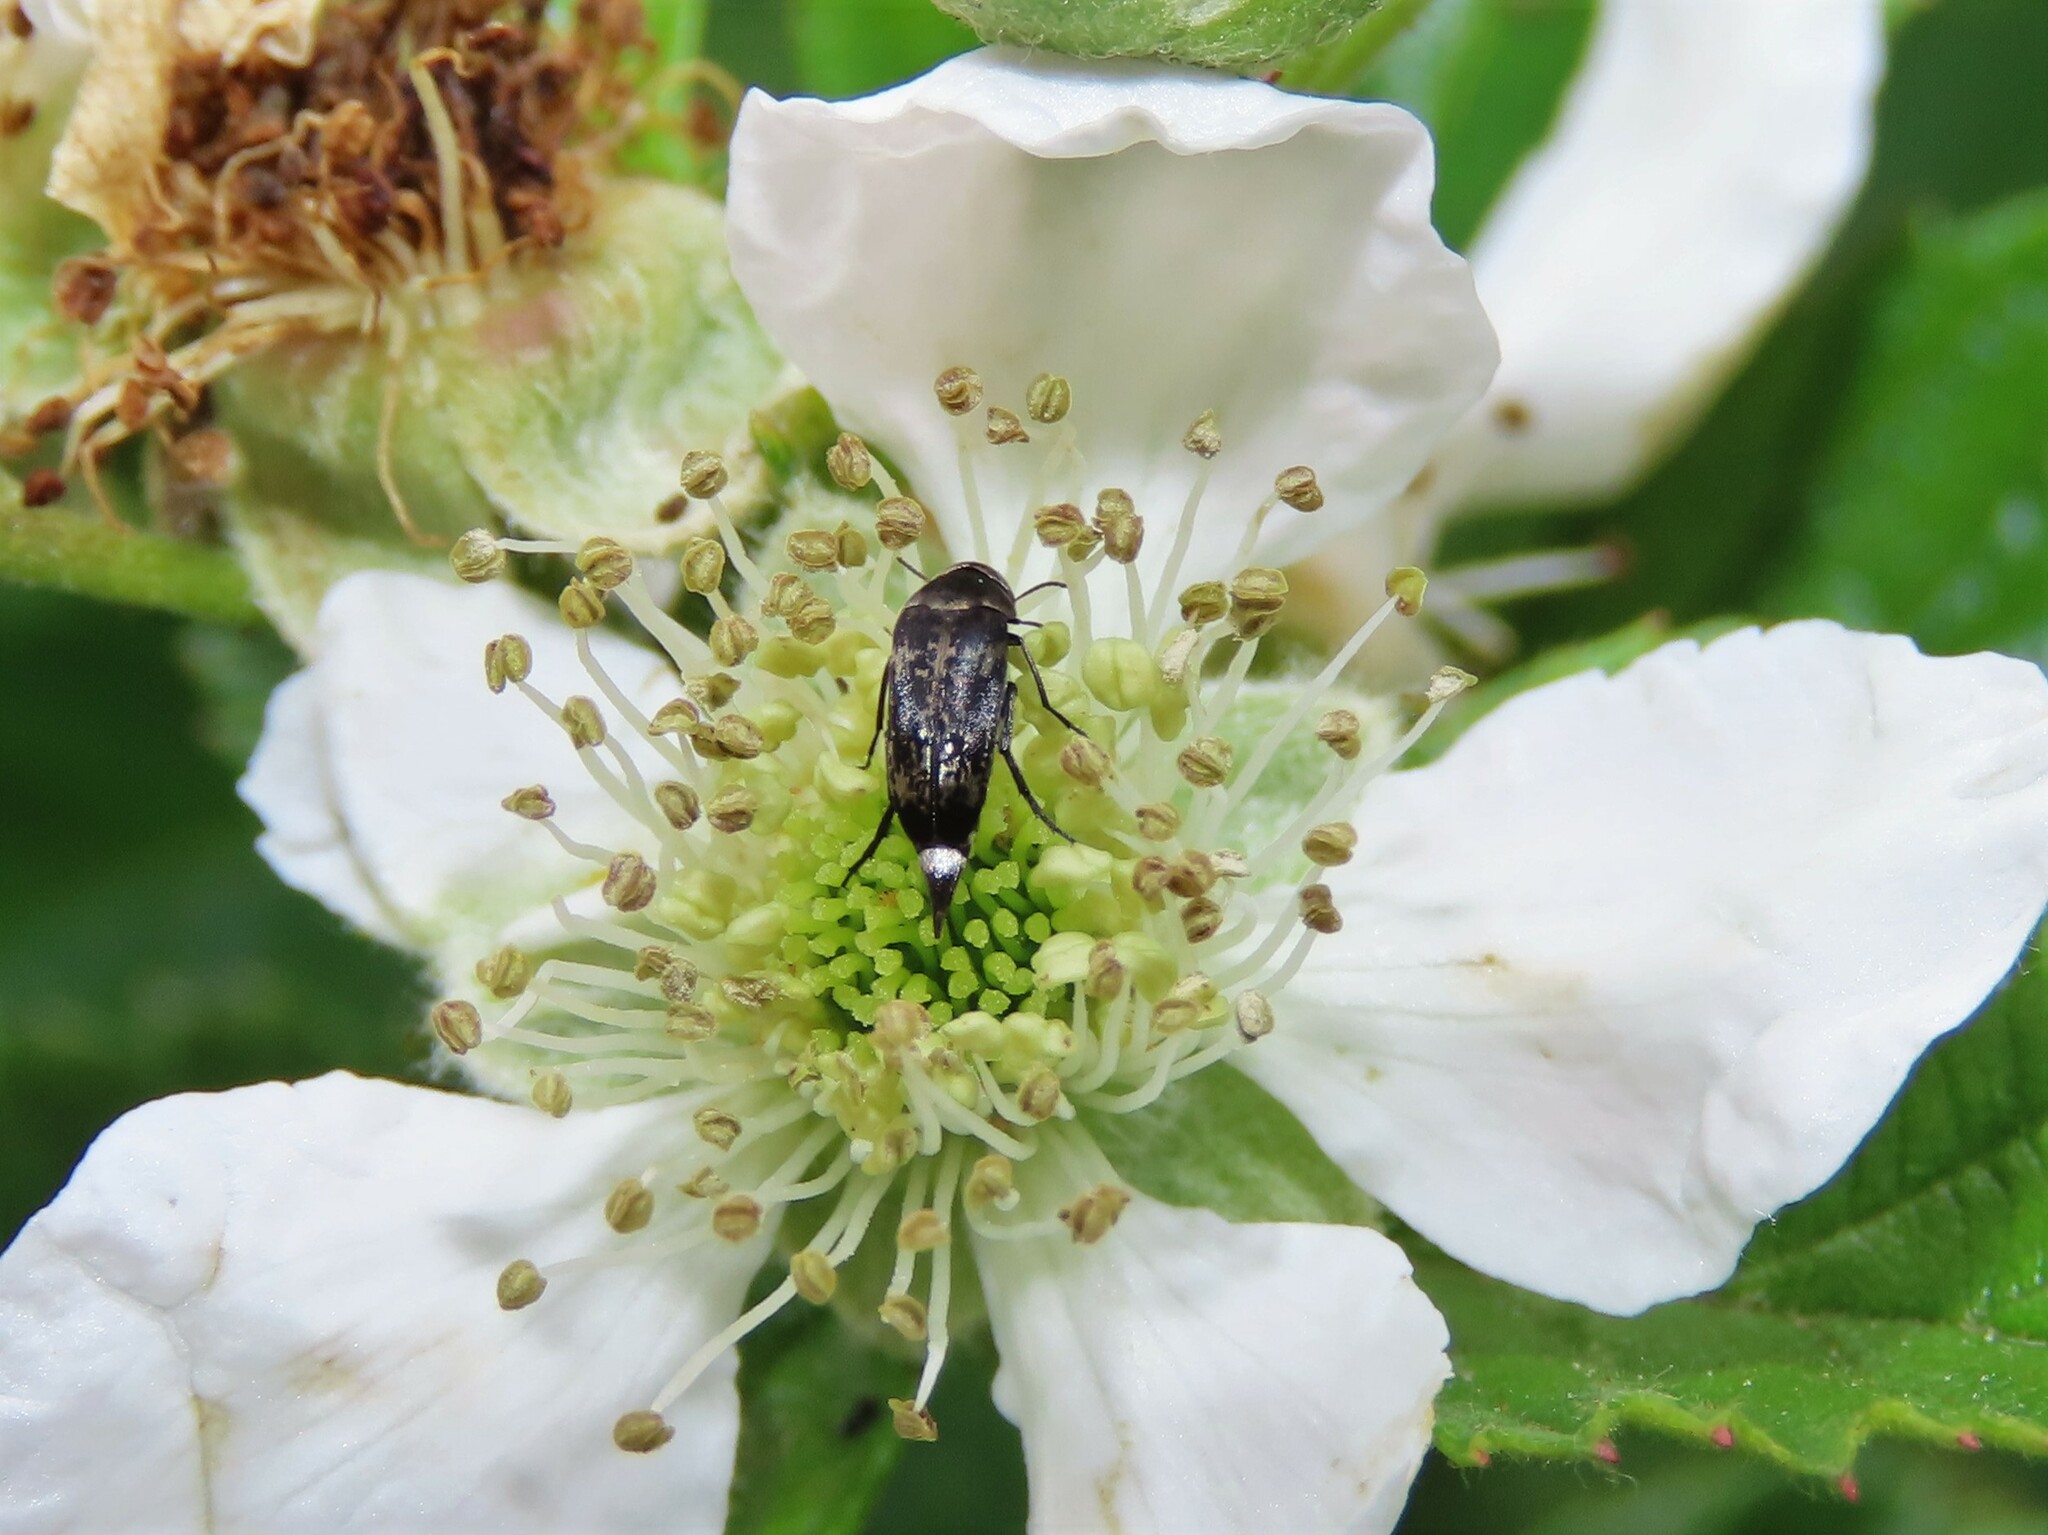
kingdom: Animalia
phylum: Arthropoda
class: Insecta
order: Coleoptera
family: Mordellidae
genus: Mordella
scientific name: Mordella marginata
